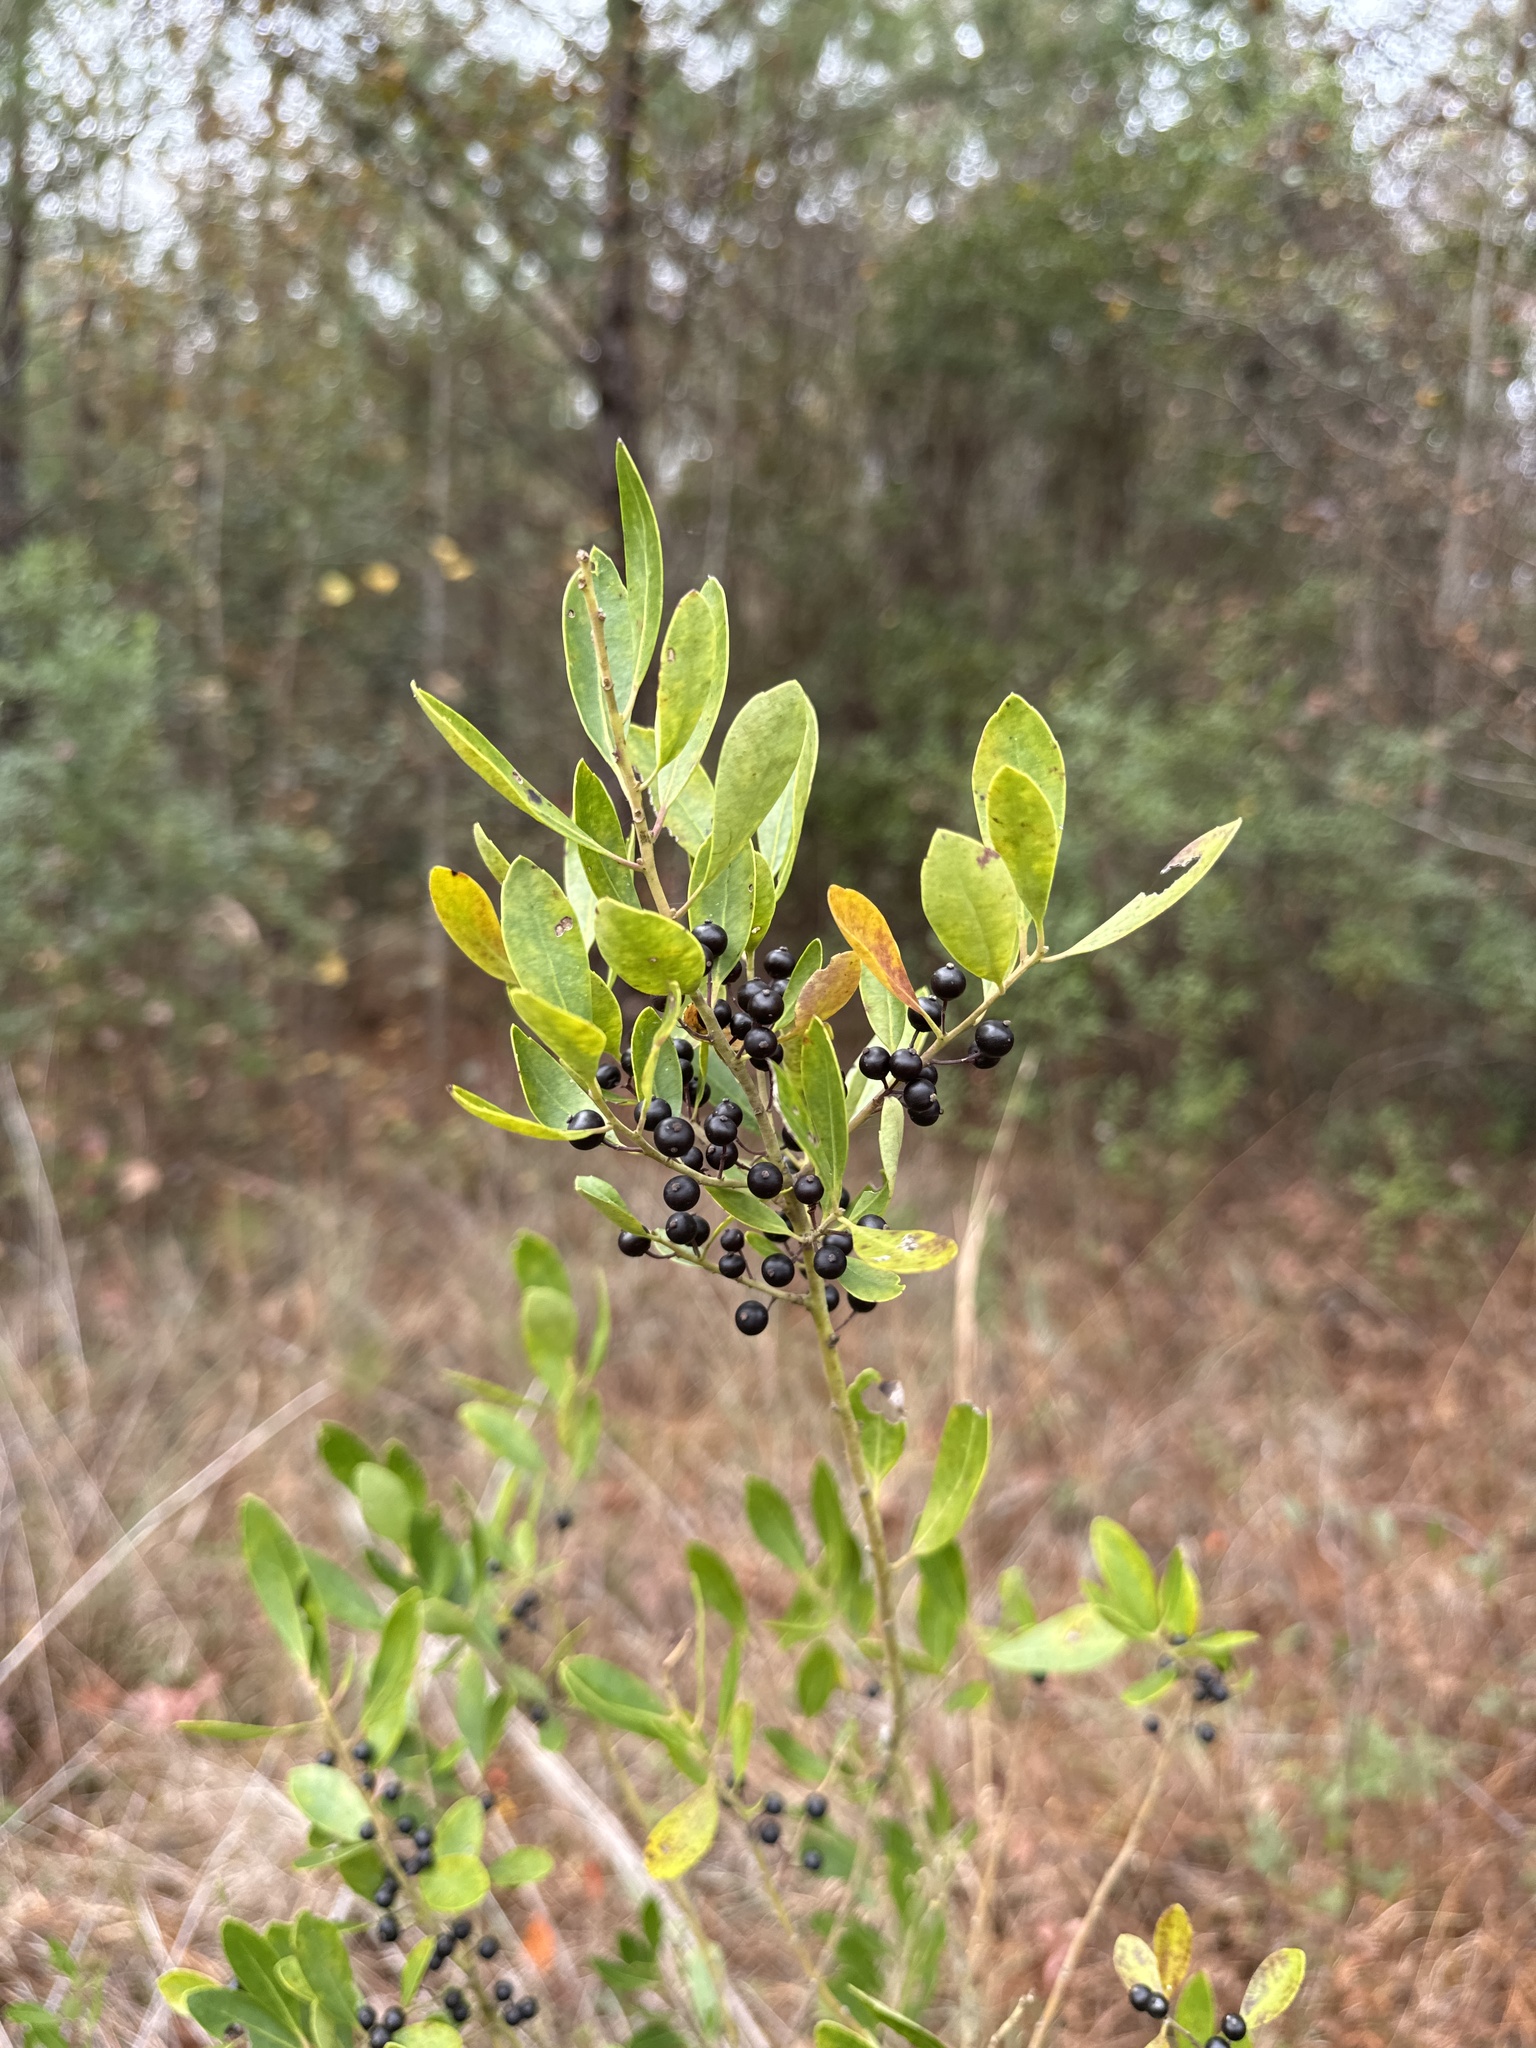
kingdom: Plantae
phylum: Tracheophyta
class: Magnoliopsida
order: Aquifoliales
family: Aquifoliaceae
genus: Ilex
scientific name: Ilex glabra
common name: Bitter gallberry
